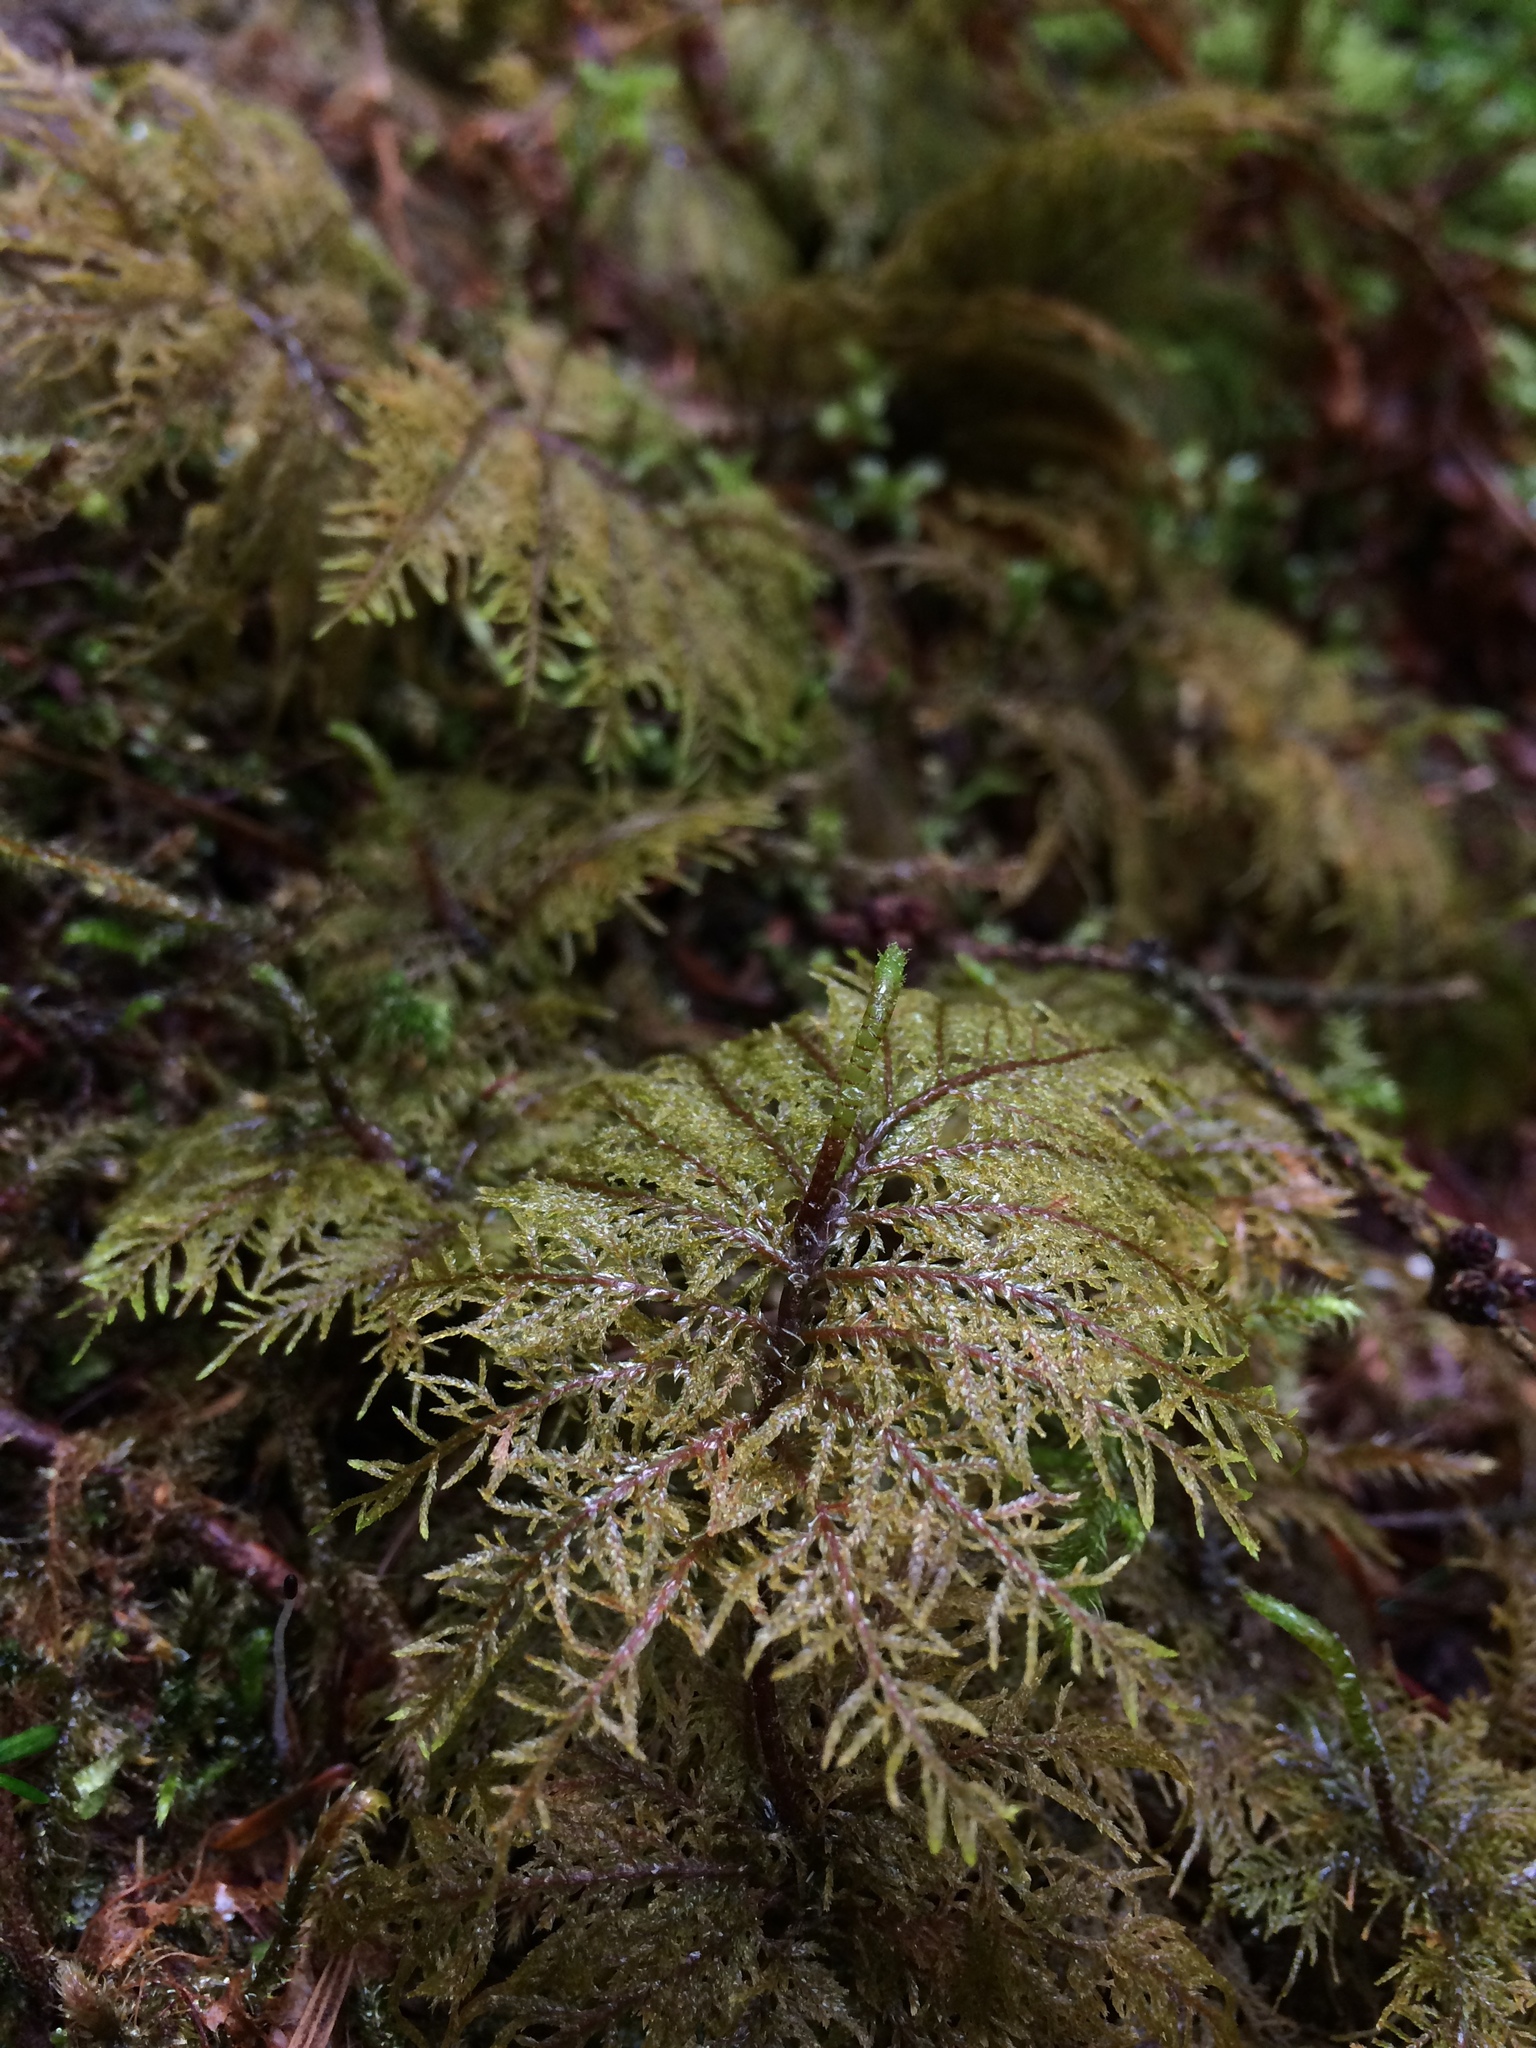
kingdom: Plantae
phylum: Bryophyta
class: Bryopsida
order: Hypnales
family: Hylocomiaceae
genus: Hylocomium
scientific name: Hylocomium splendens
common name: Stairstep moss
